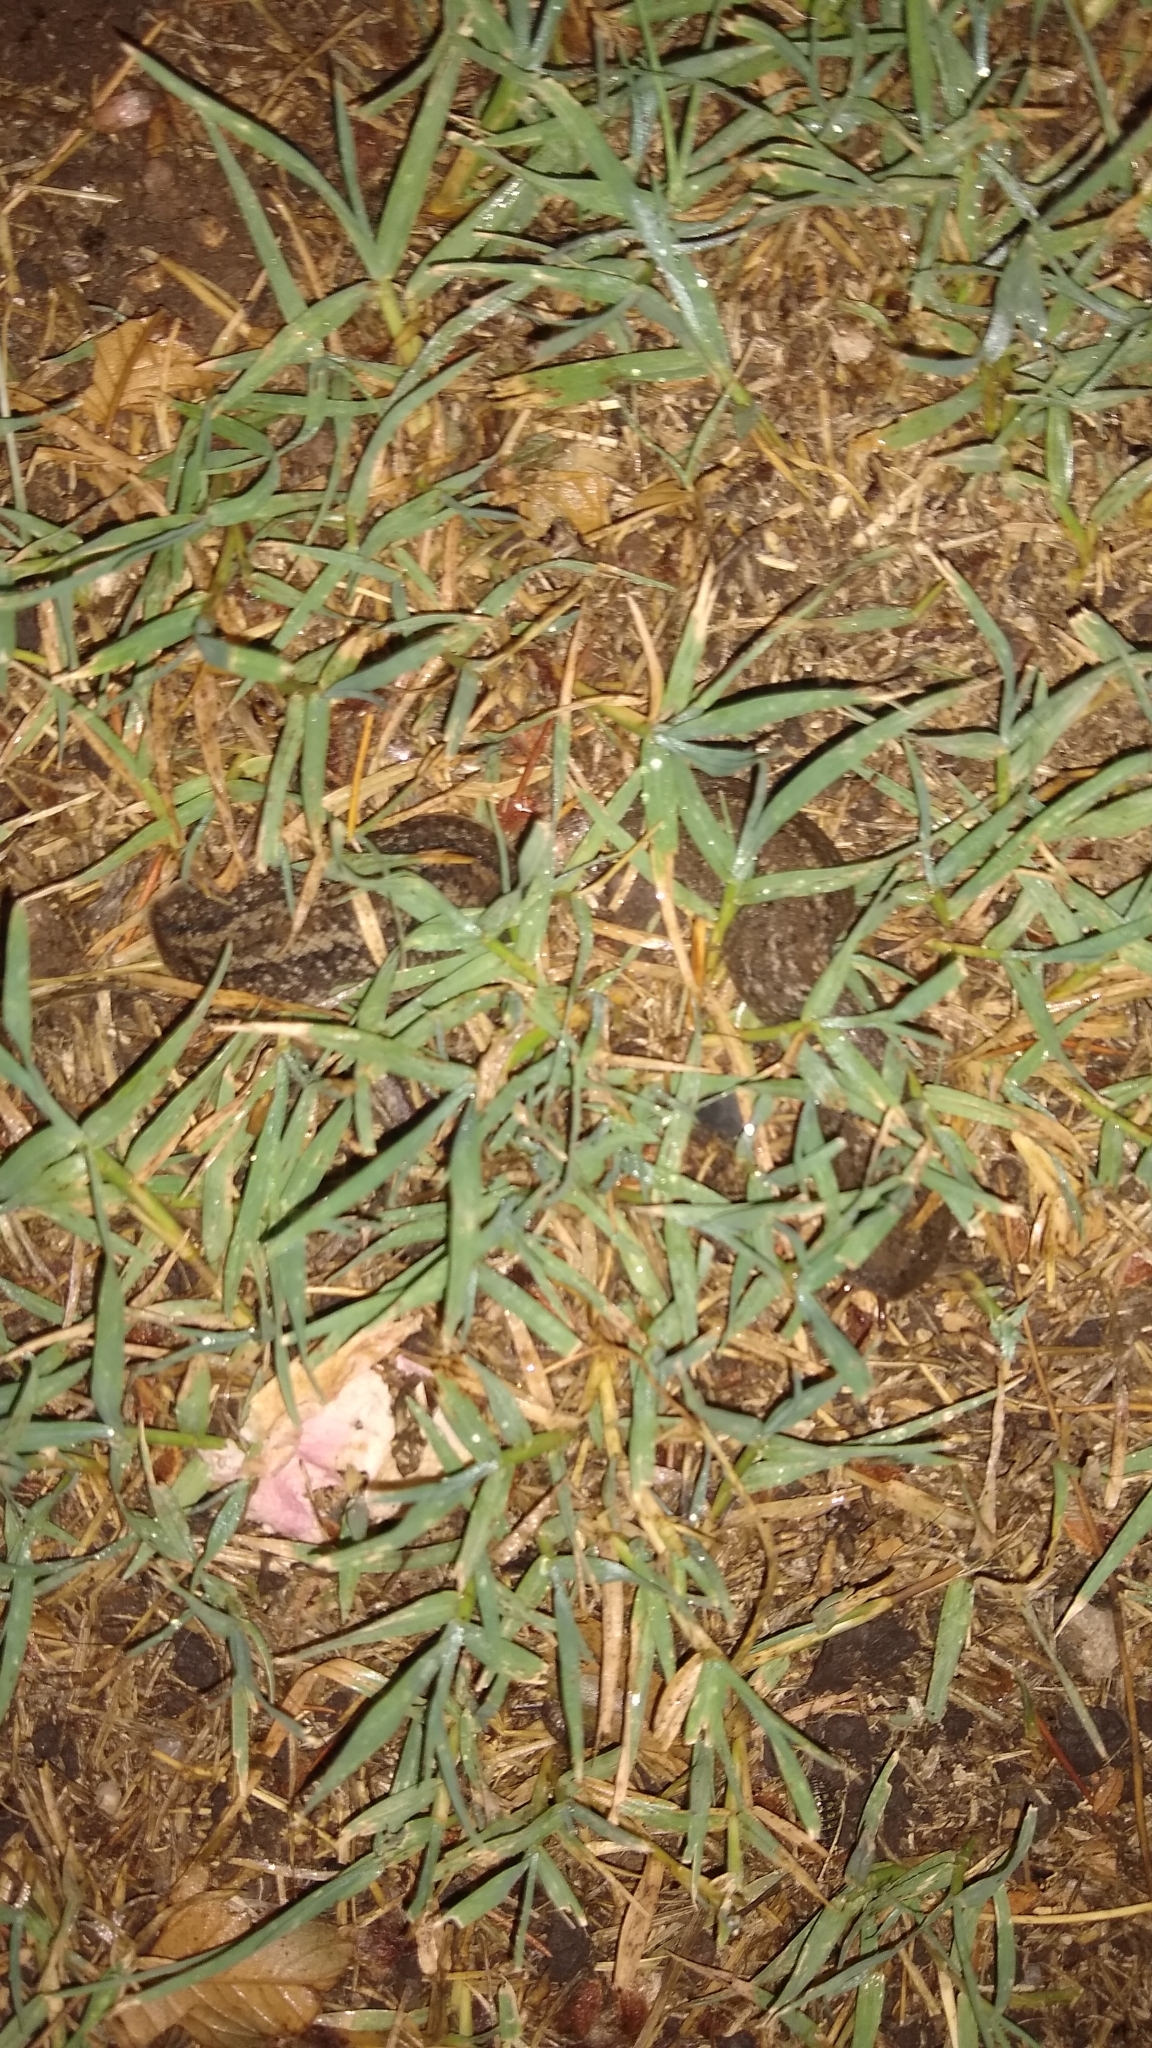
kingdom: Animalia
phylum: Mollusca
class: Gastropoda
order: Systellommatophora
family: Veronicellidae
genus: Phyllocaulis
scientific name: Phyllocaulis soleiformis
